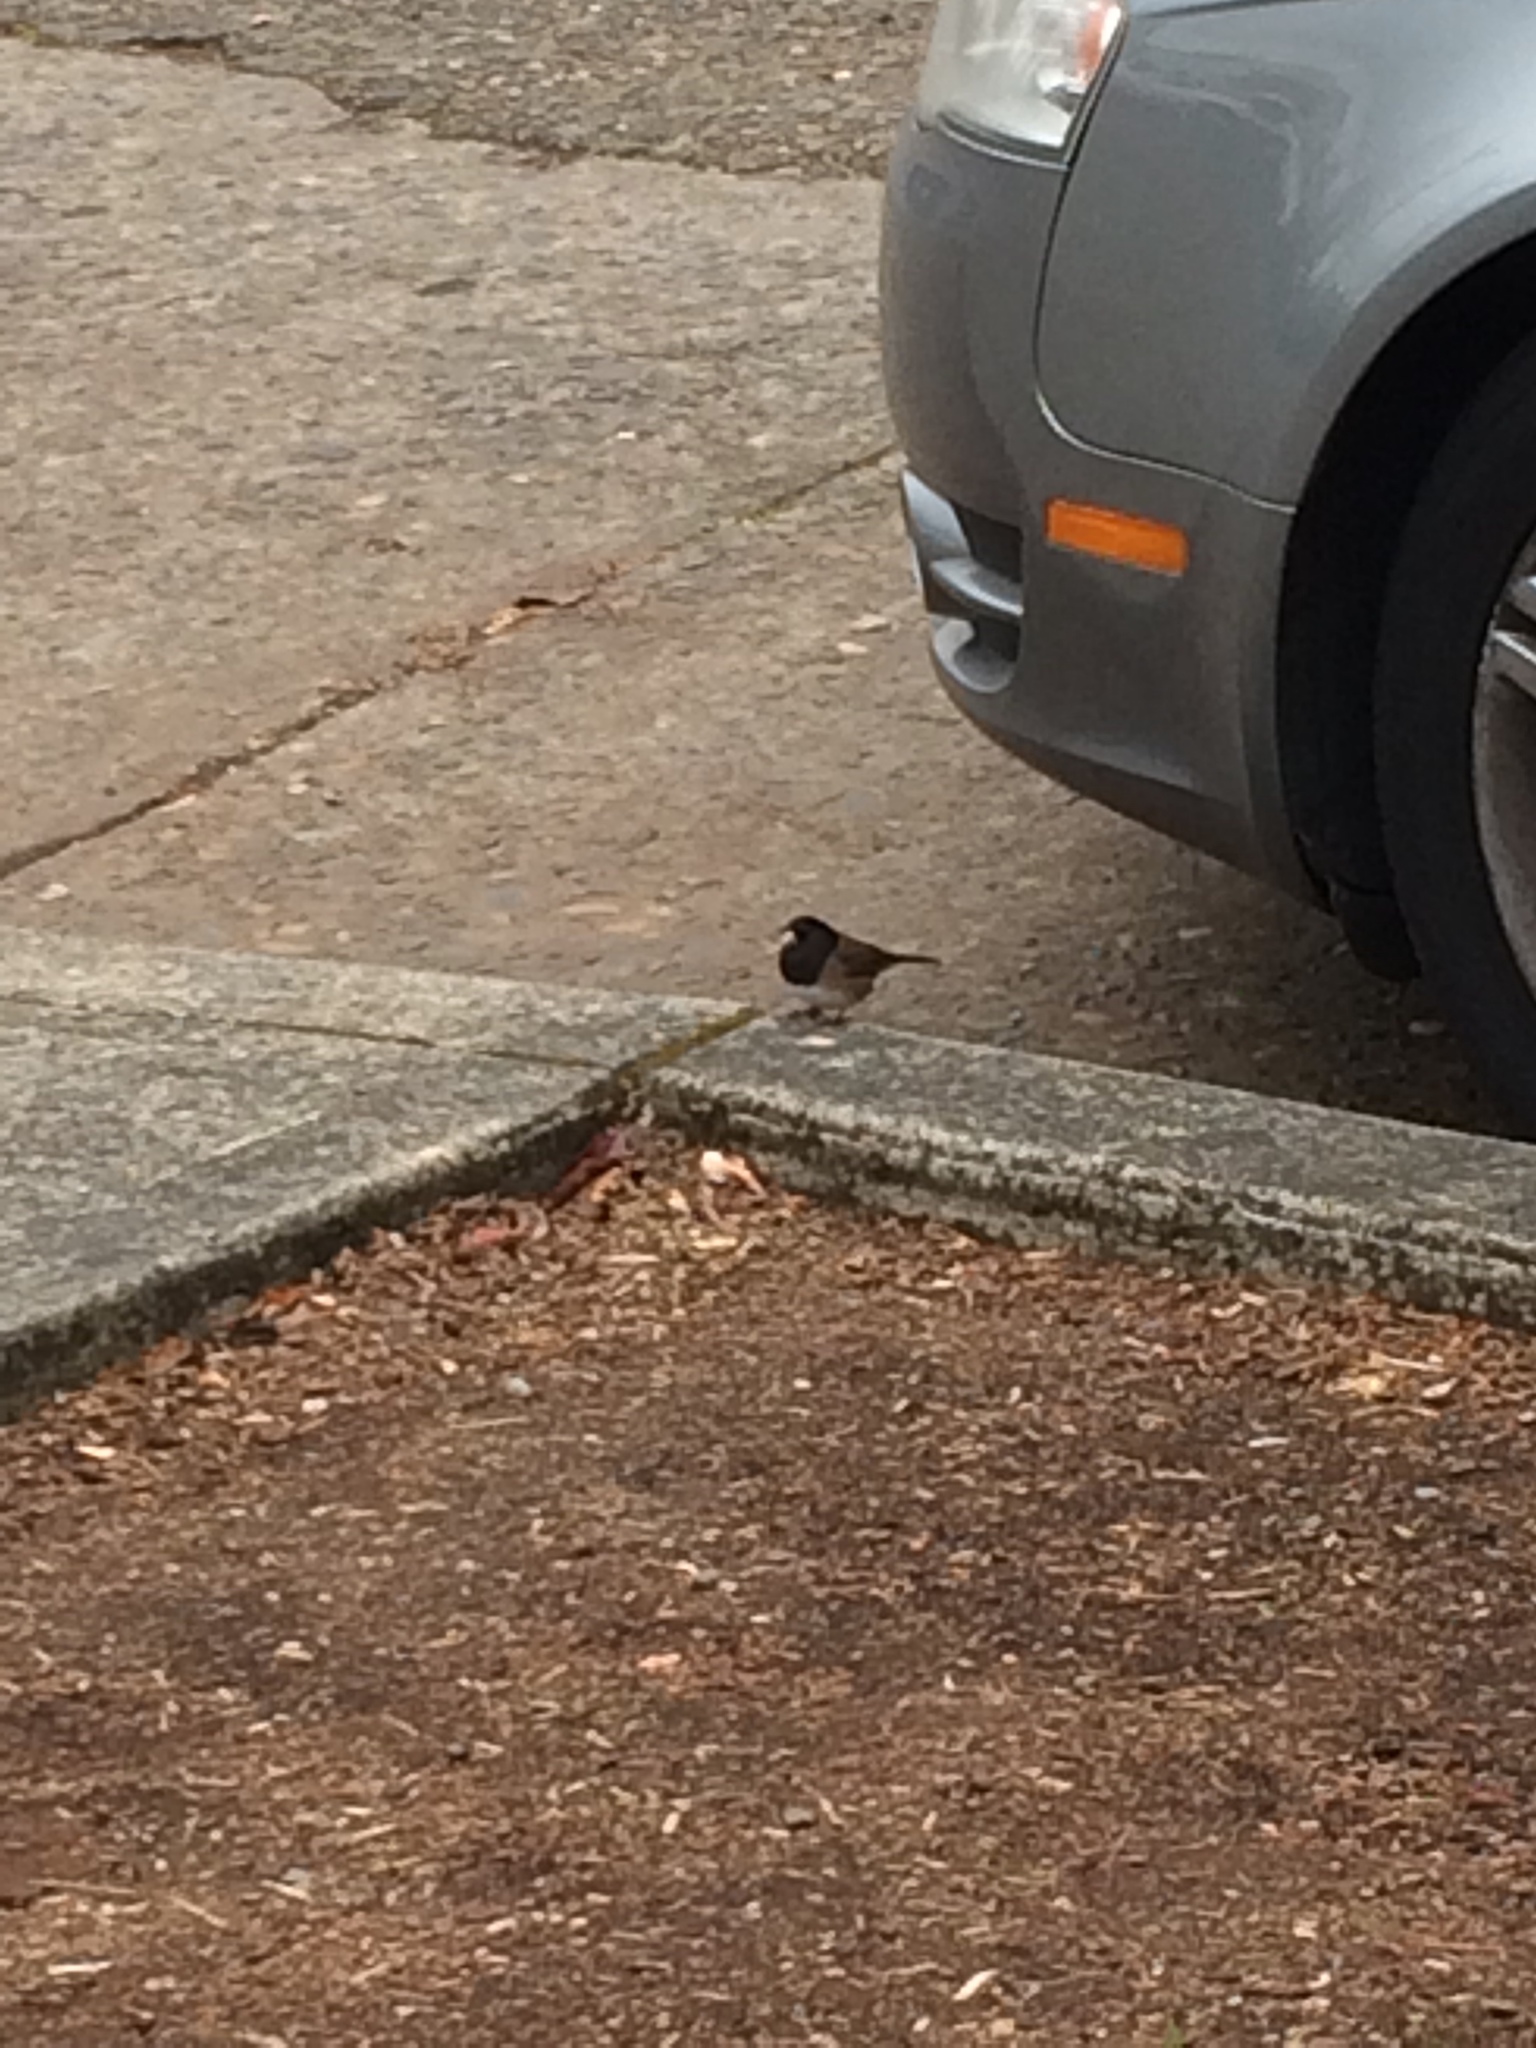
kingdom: Animalia
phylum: Chordata
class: Aves
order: Passeriformes
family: Passerellidae
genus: Junco
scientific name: Junco hyemalis
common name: Dark-eyed junco
